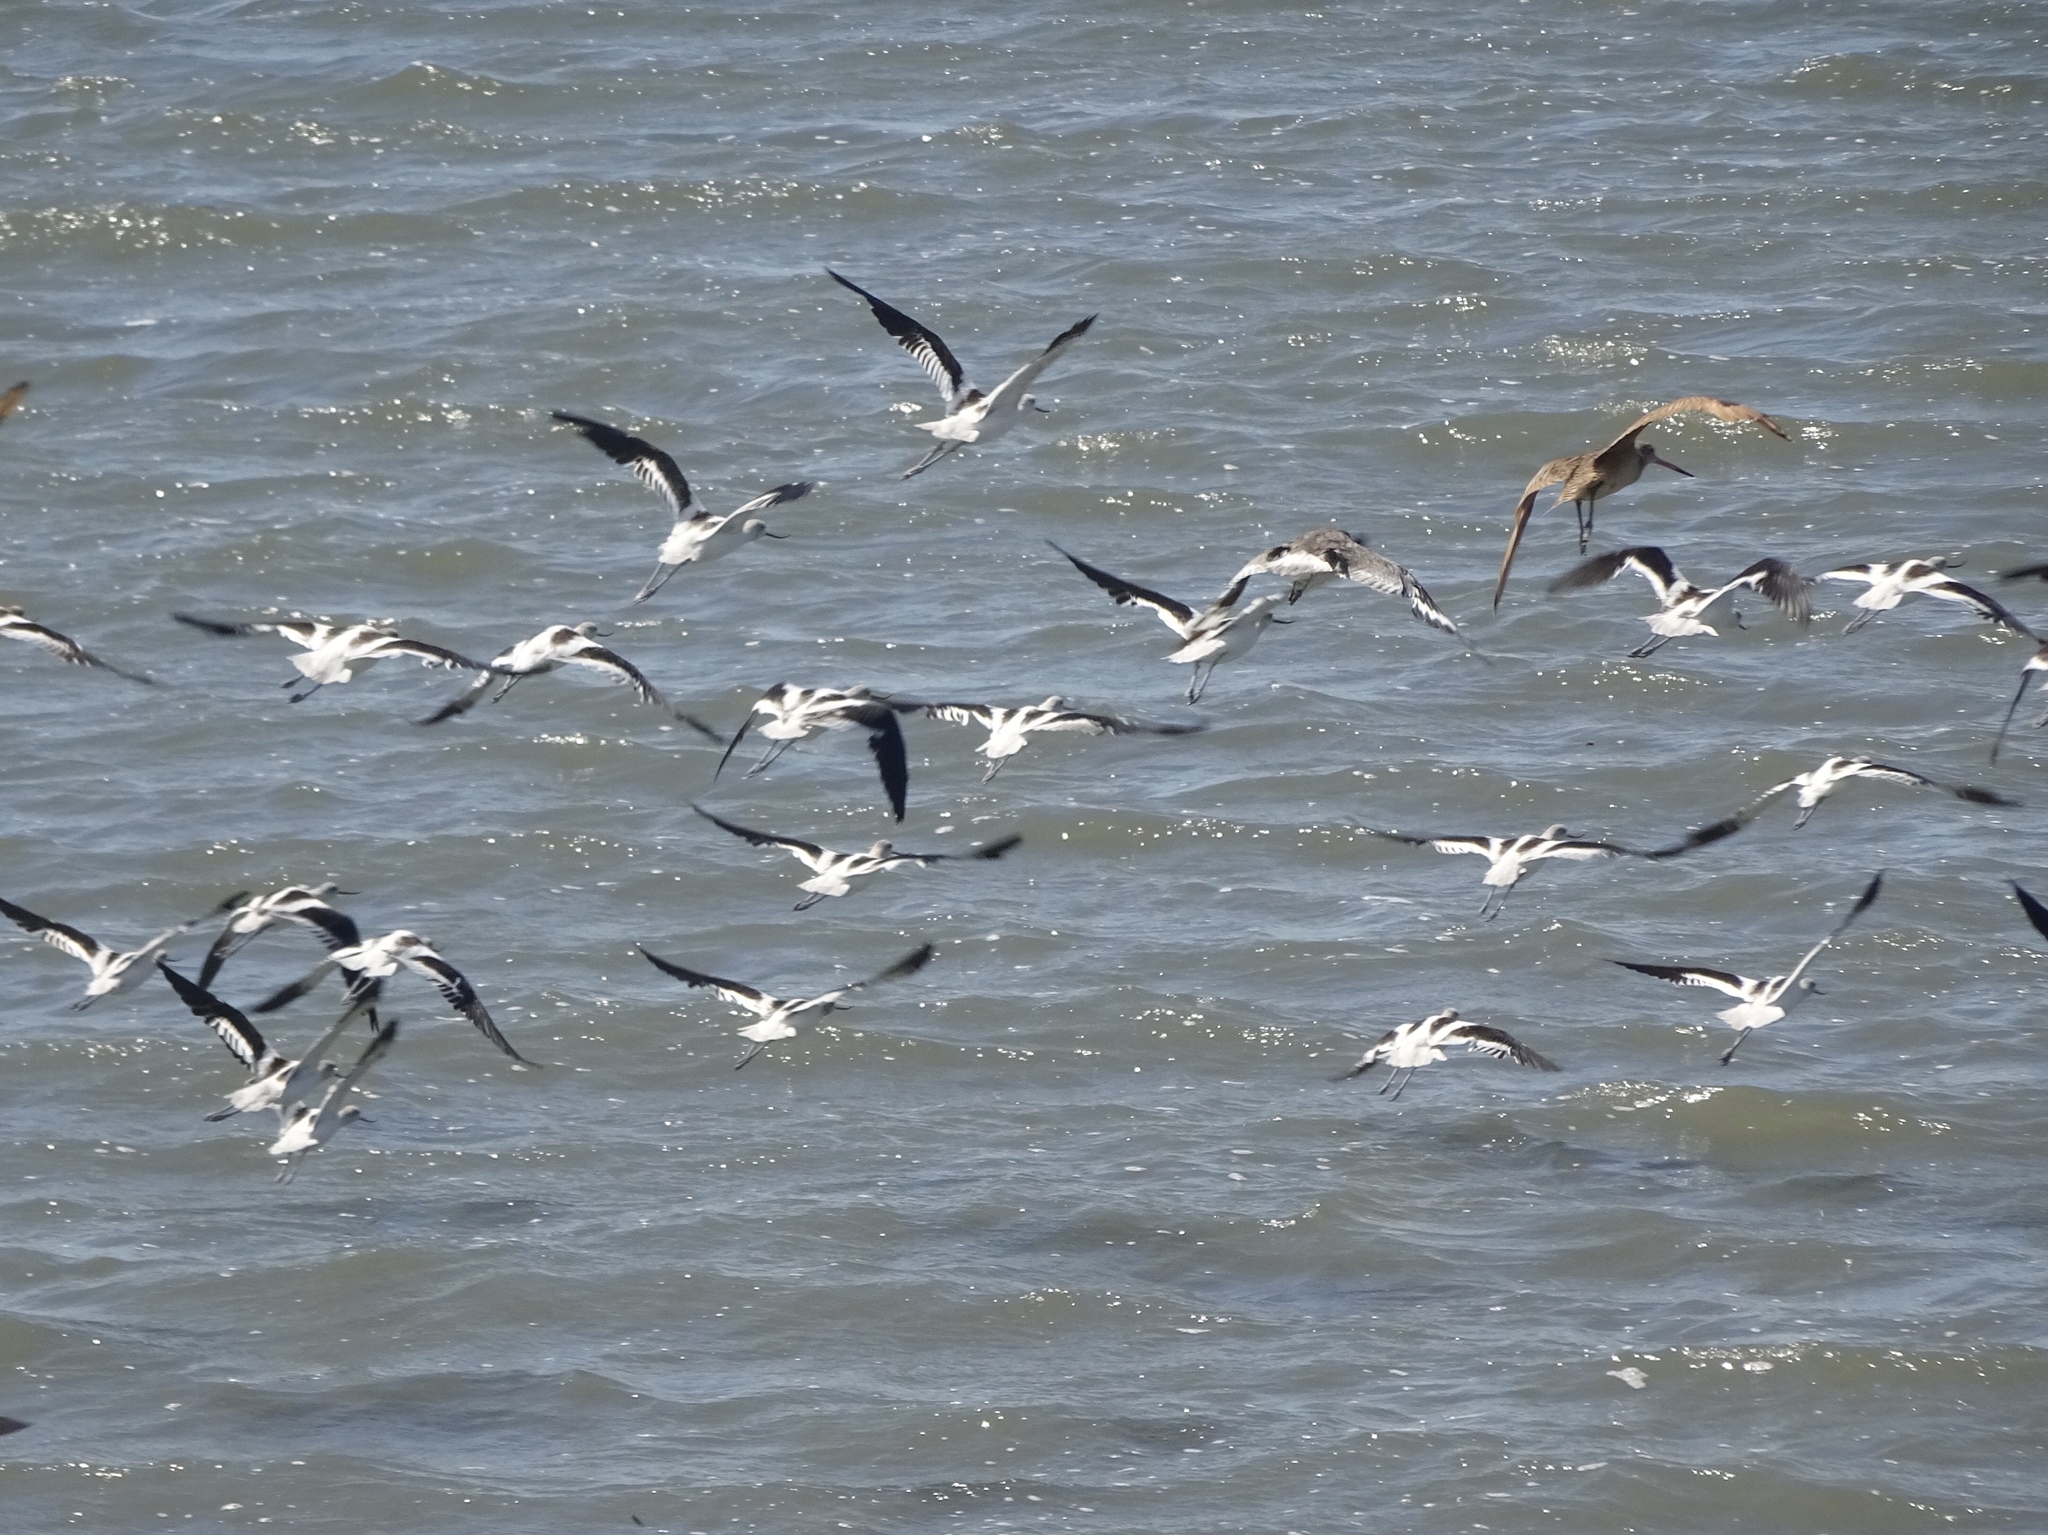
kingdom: Animalia
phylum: Chordata
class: Aves
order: Charadriiformes
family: Recurvirostridae
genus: Recurvirostra
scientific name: Recurvirostra americana
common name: American avocet
